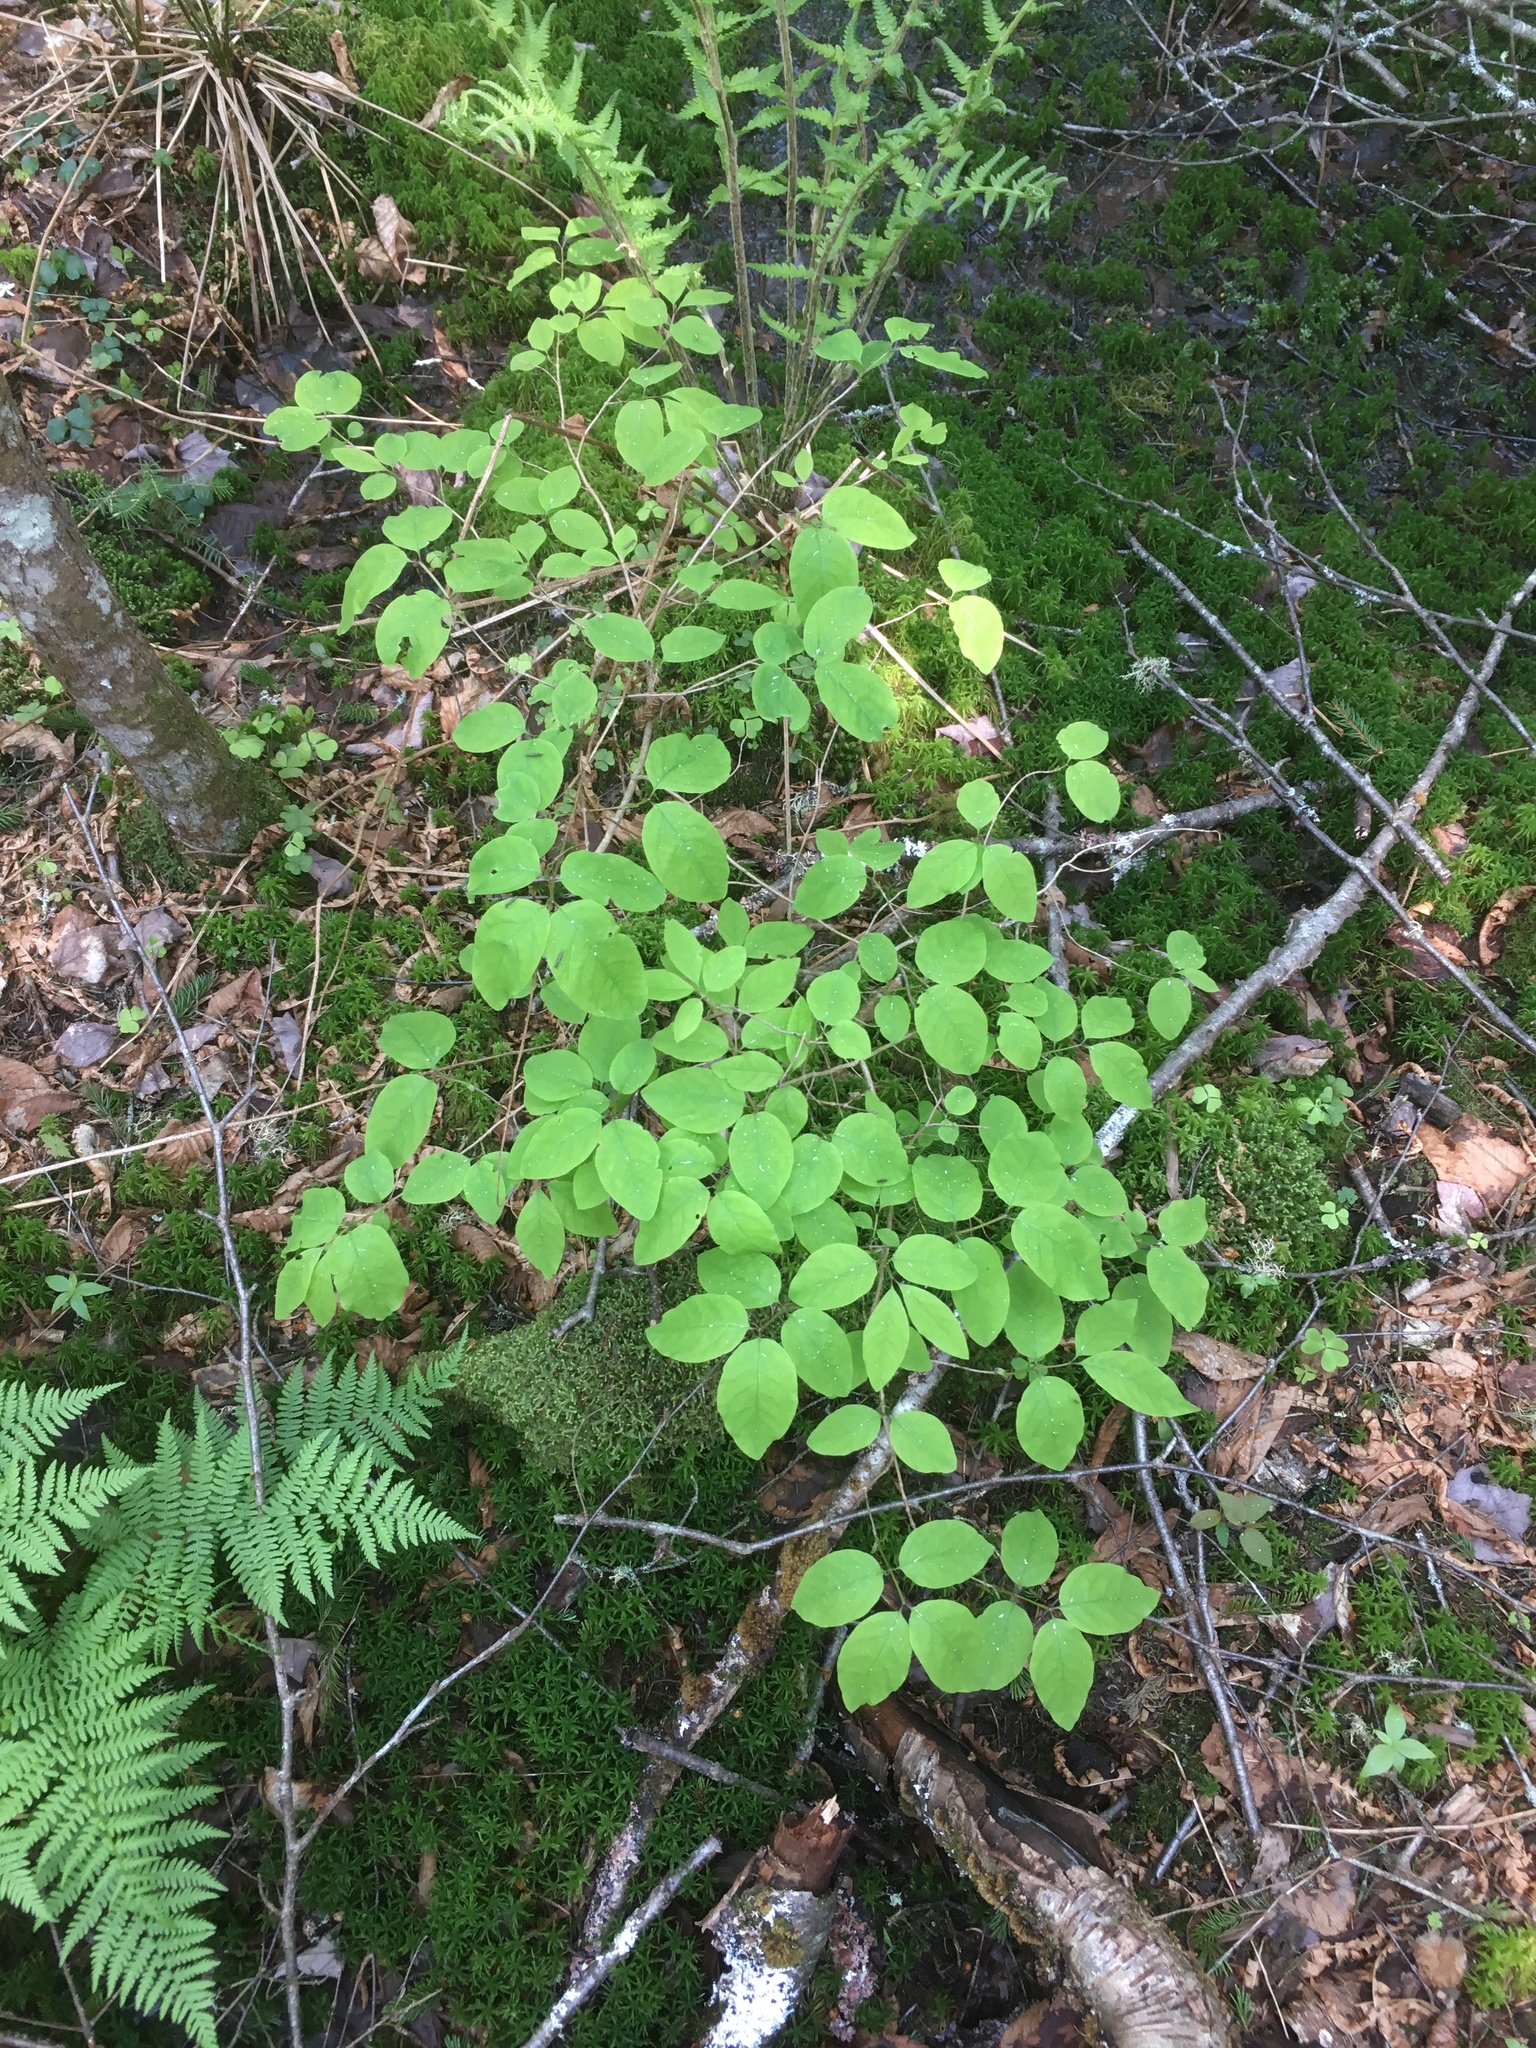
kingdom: Plantae
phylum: Tracheophyta
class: Magnoliopsida
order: Dipsacales
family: Caprifoliaceae
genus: Lonicera
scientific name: Lonicera canadensis
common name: American fly-honeysuckle
